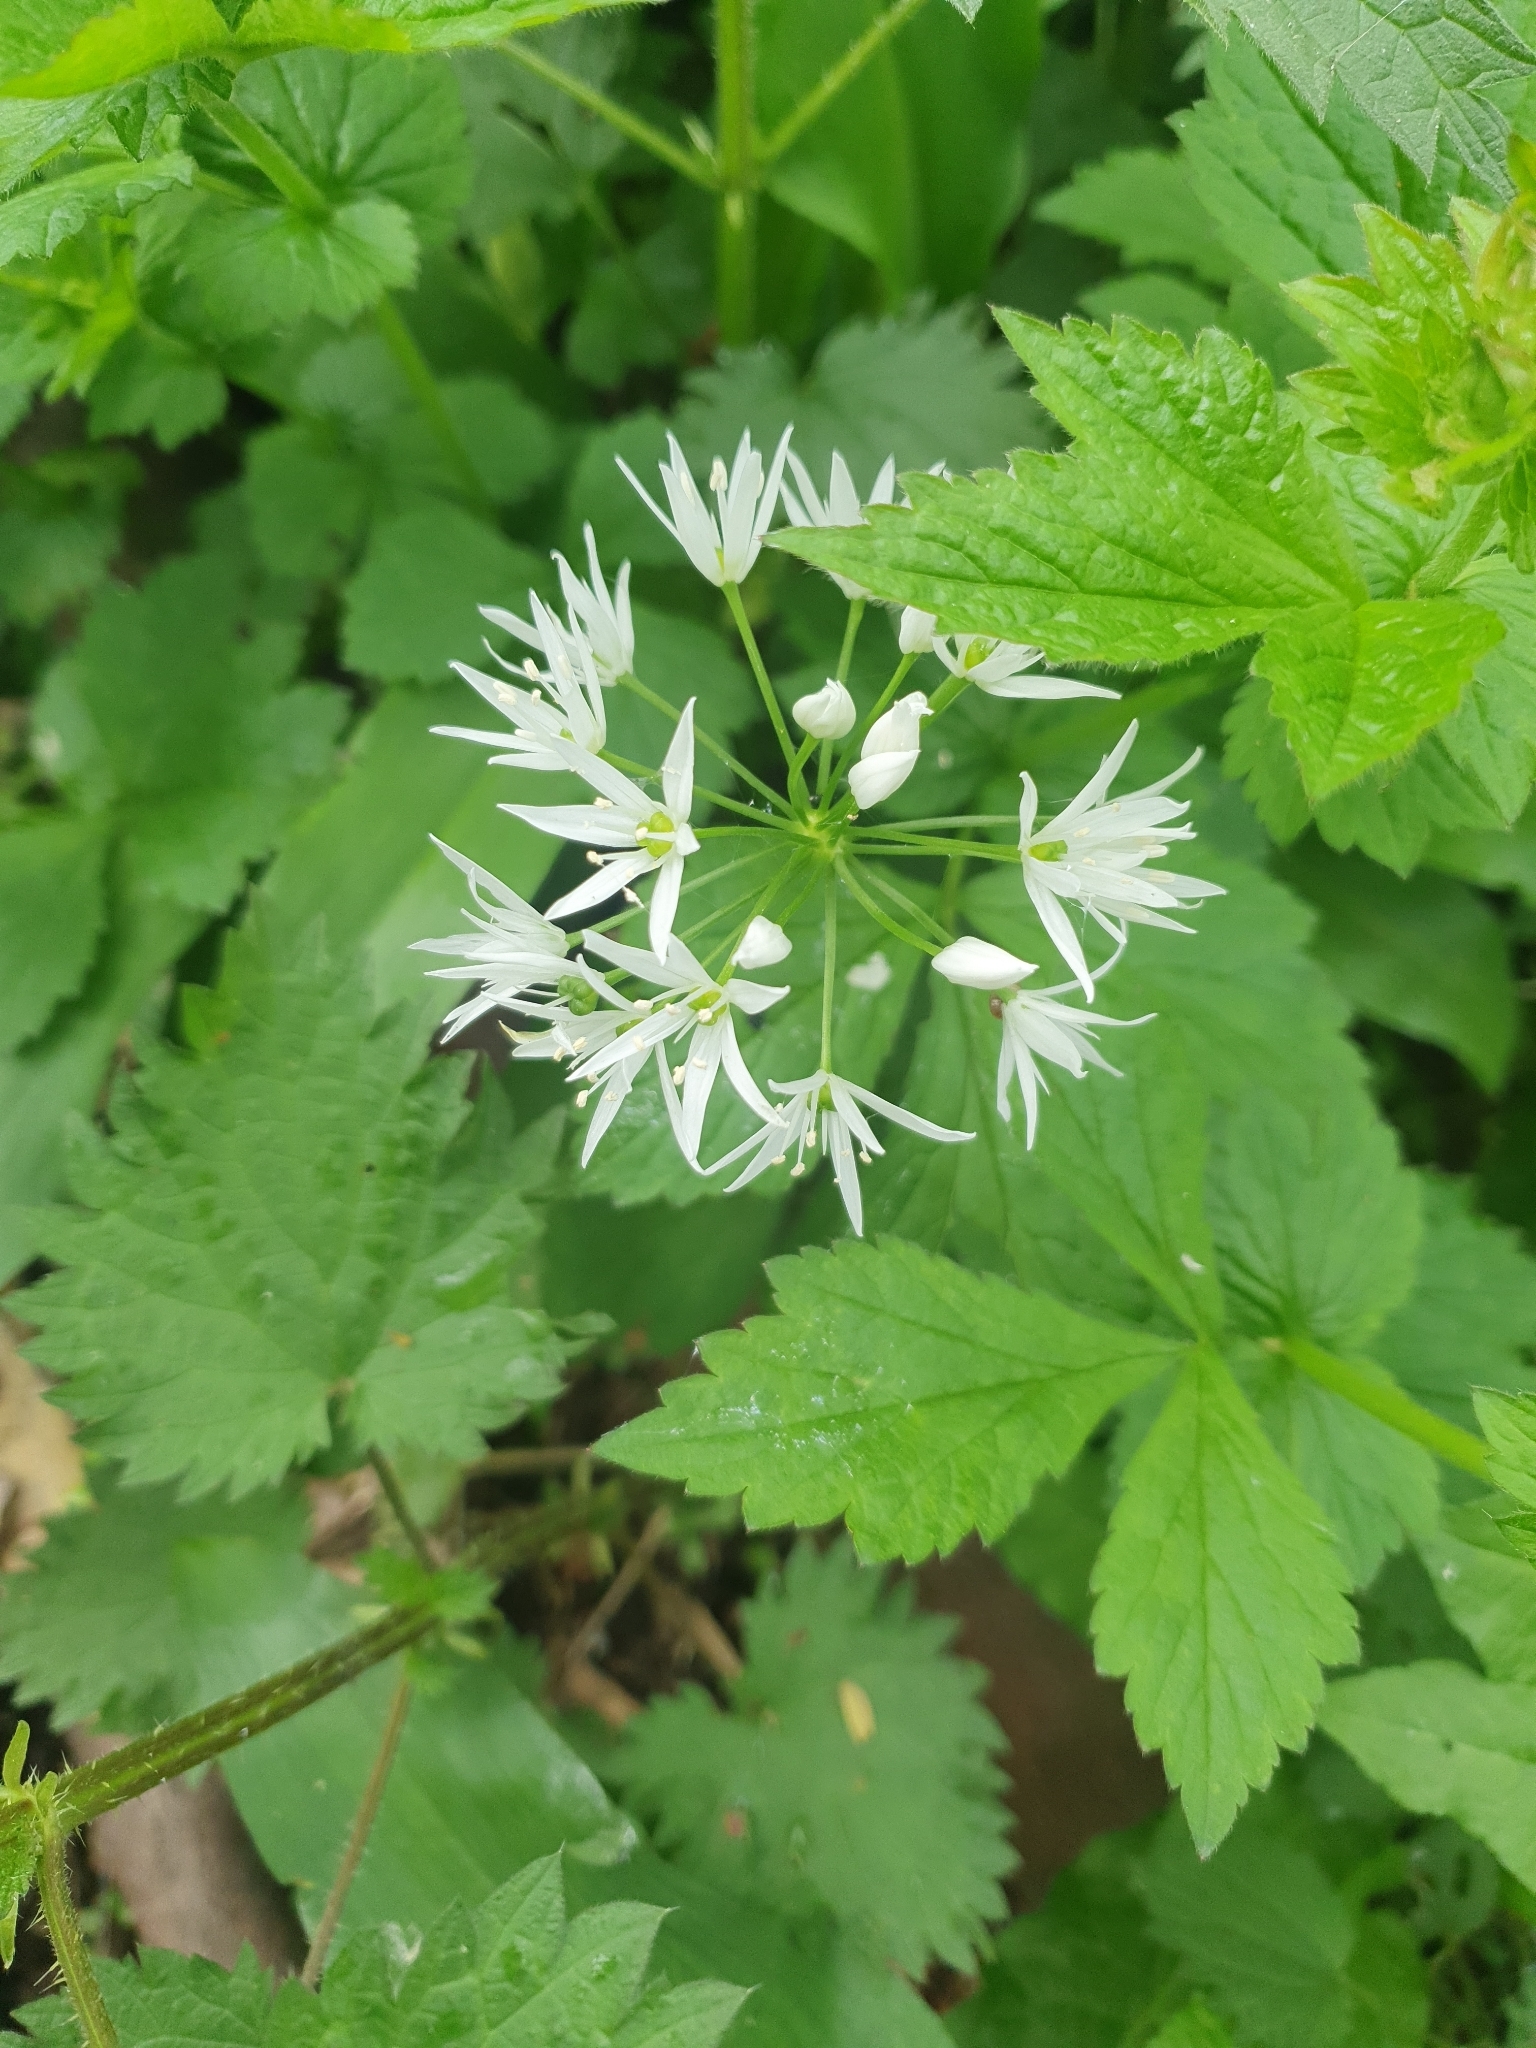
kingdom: Plantae
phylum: Tracheophyta
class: Liliopsida
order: Asparagales
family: Amaryllidaceae
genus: Allium
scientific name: Allium ursinum
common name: Ramsons
